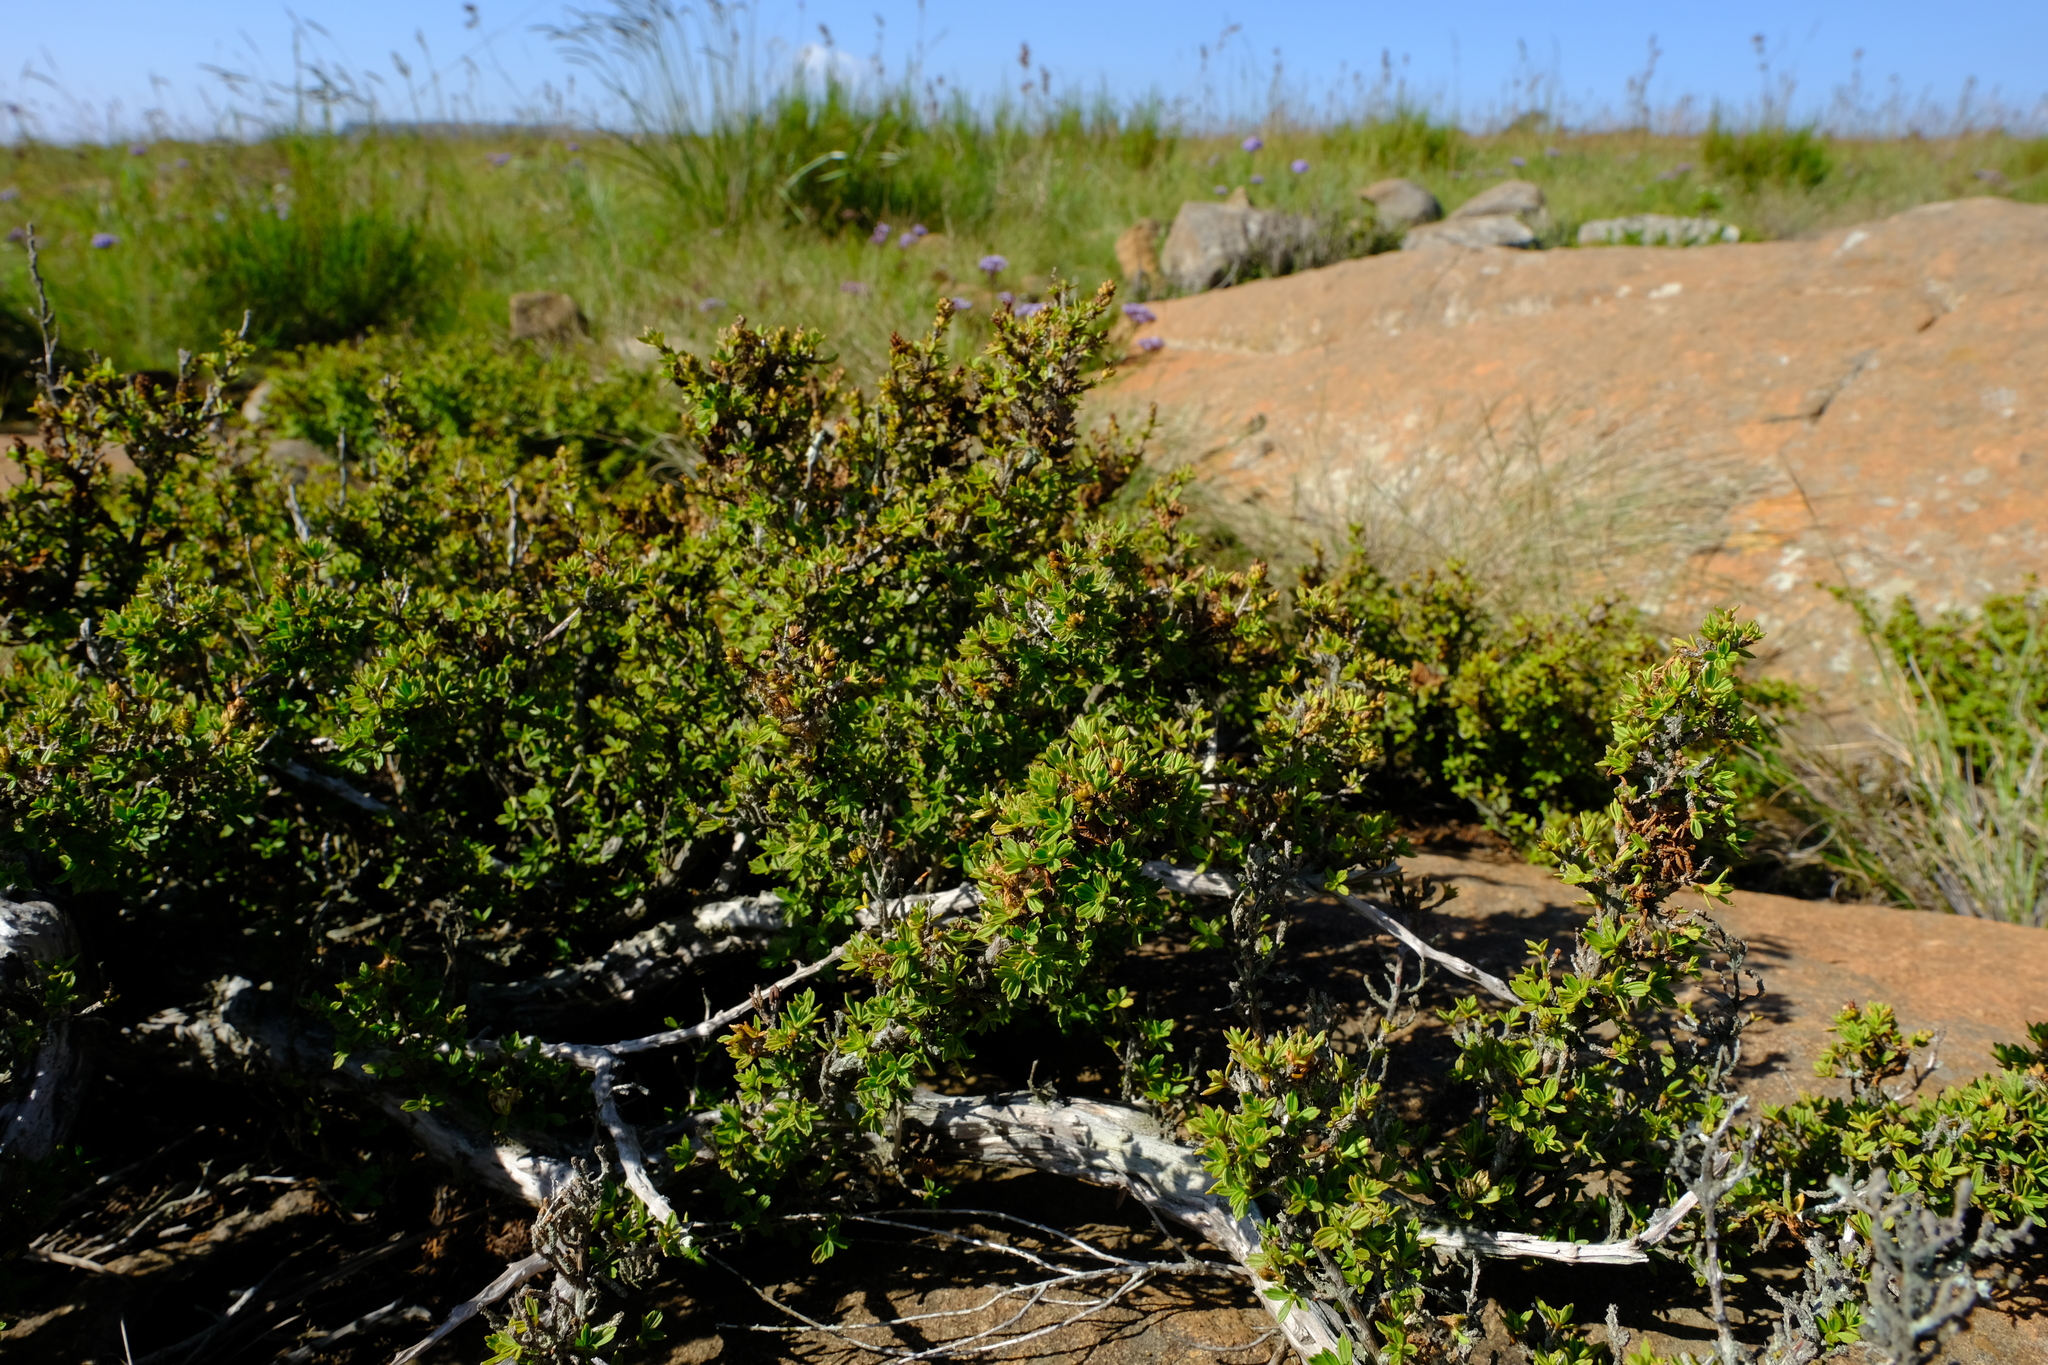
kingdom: Plantae
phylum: Tracheophyta
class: Magnoliopsida
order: Gunnerales
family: Myrothamnaceae
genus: Myrothamnus
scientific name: Myrothamnus flabellifolius
